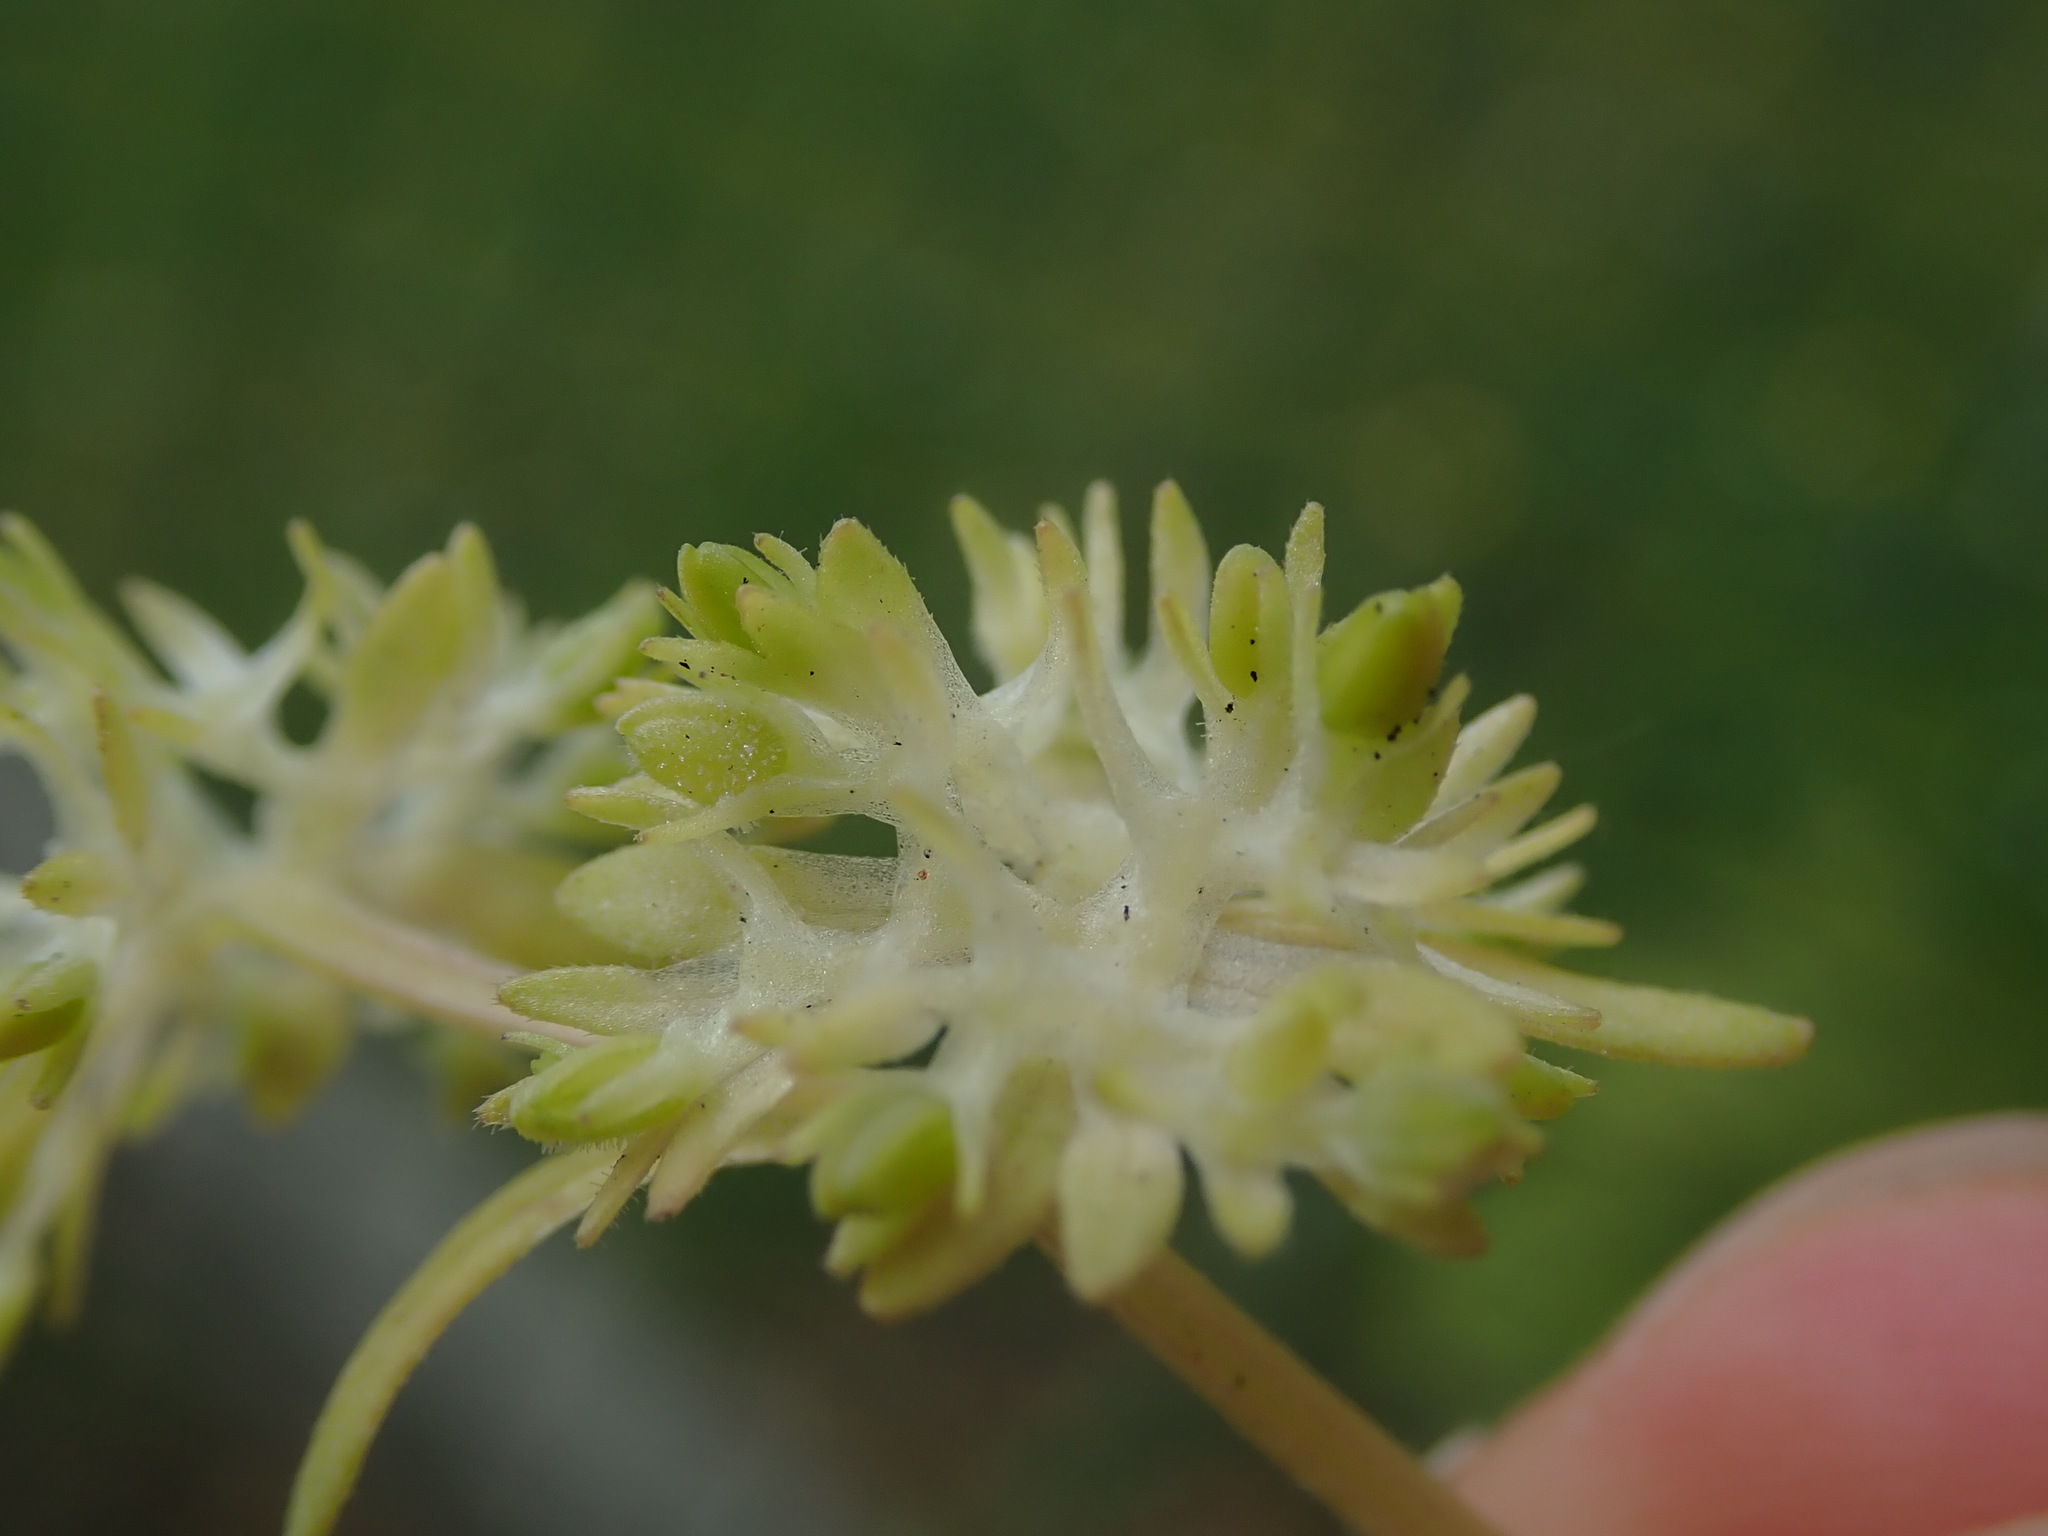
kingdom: Plantae
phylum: Tracheophyta
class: Magnoliopsida
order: Dipsacales
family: Caprifoliaceae
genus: Valerianella
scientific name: Valerianella carinata
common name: Keeled-fruited cornsalad
